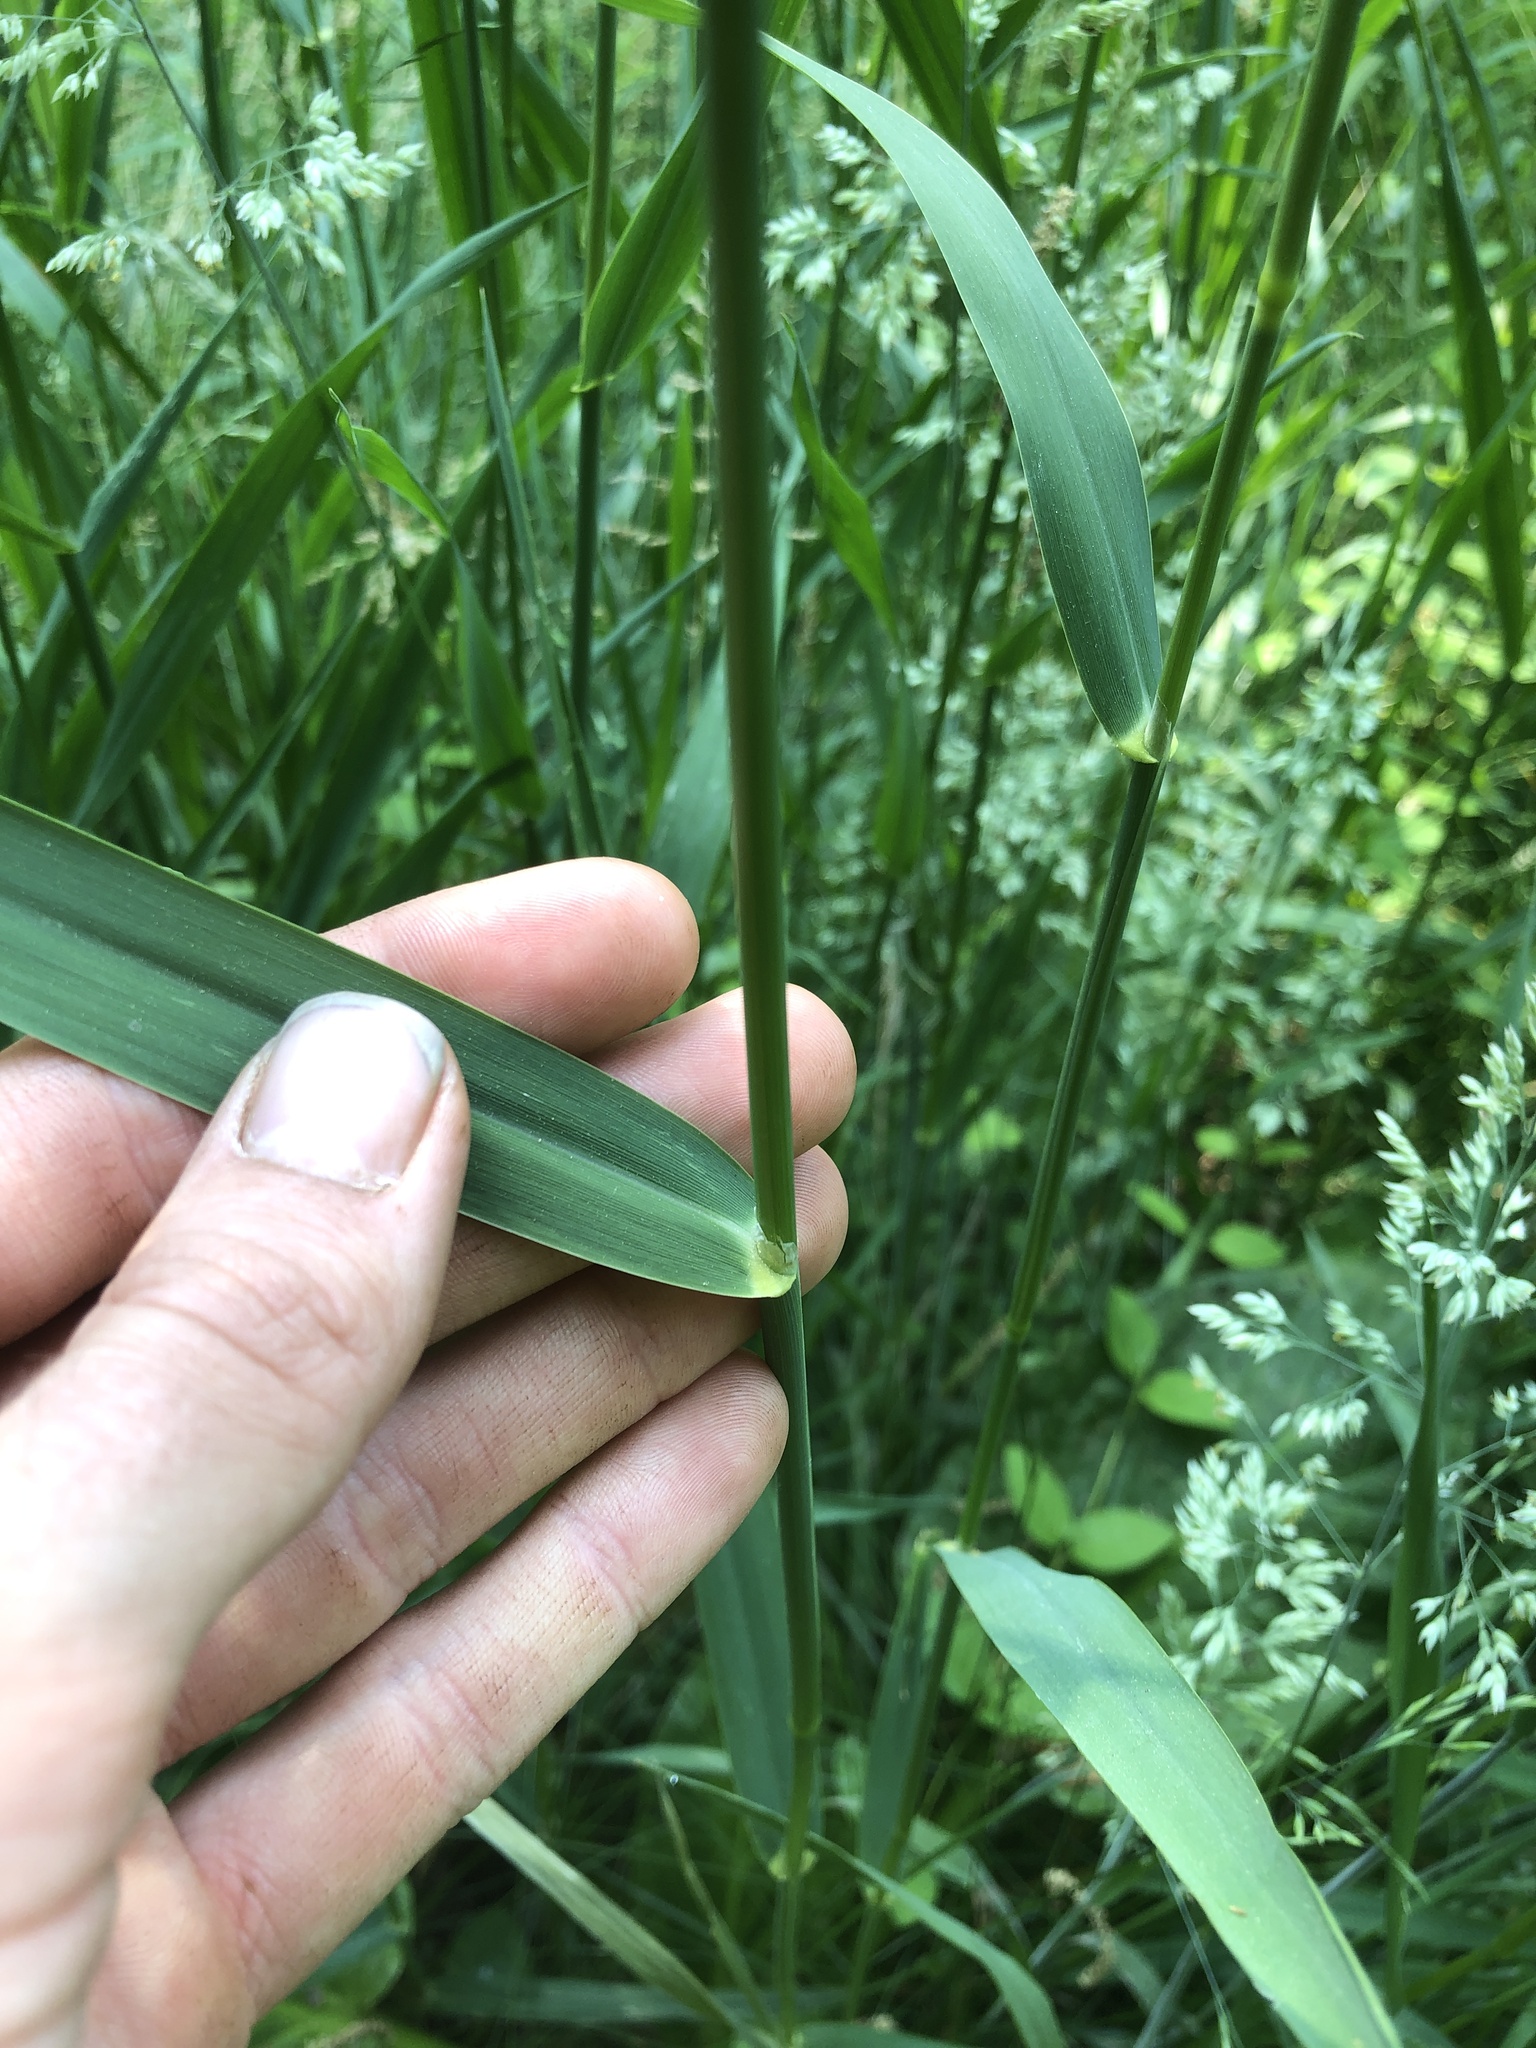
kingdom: Plantae
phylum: Tracheophyta
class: Liliopsida
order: Poales
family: Poaceae
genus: Phalaris
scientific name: Phalaris arundinacea
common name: Reed canary-grass
